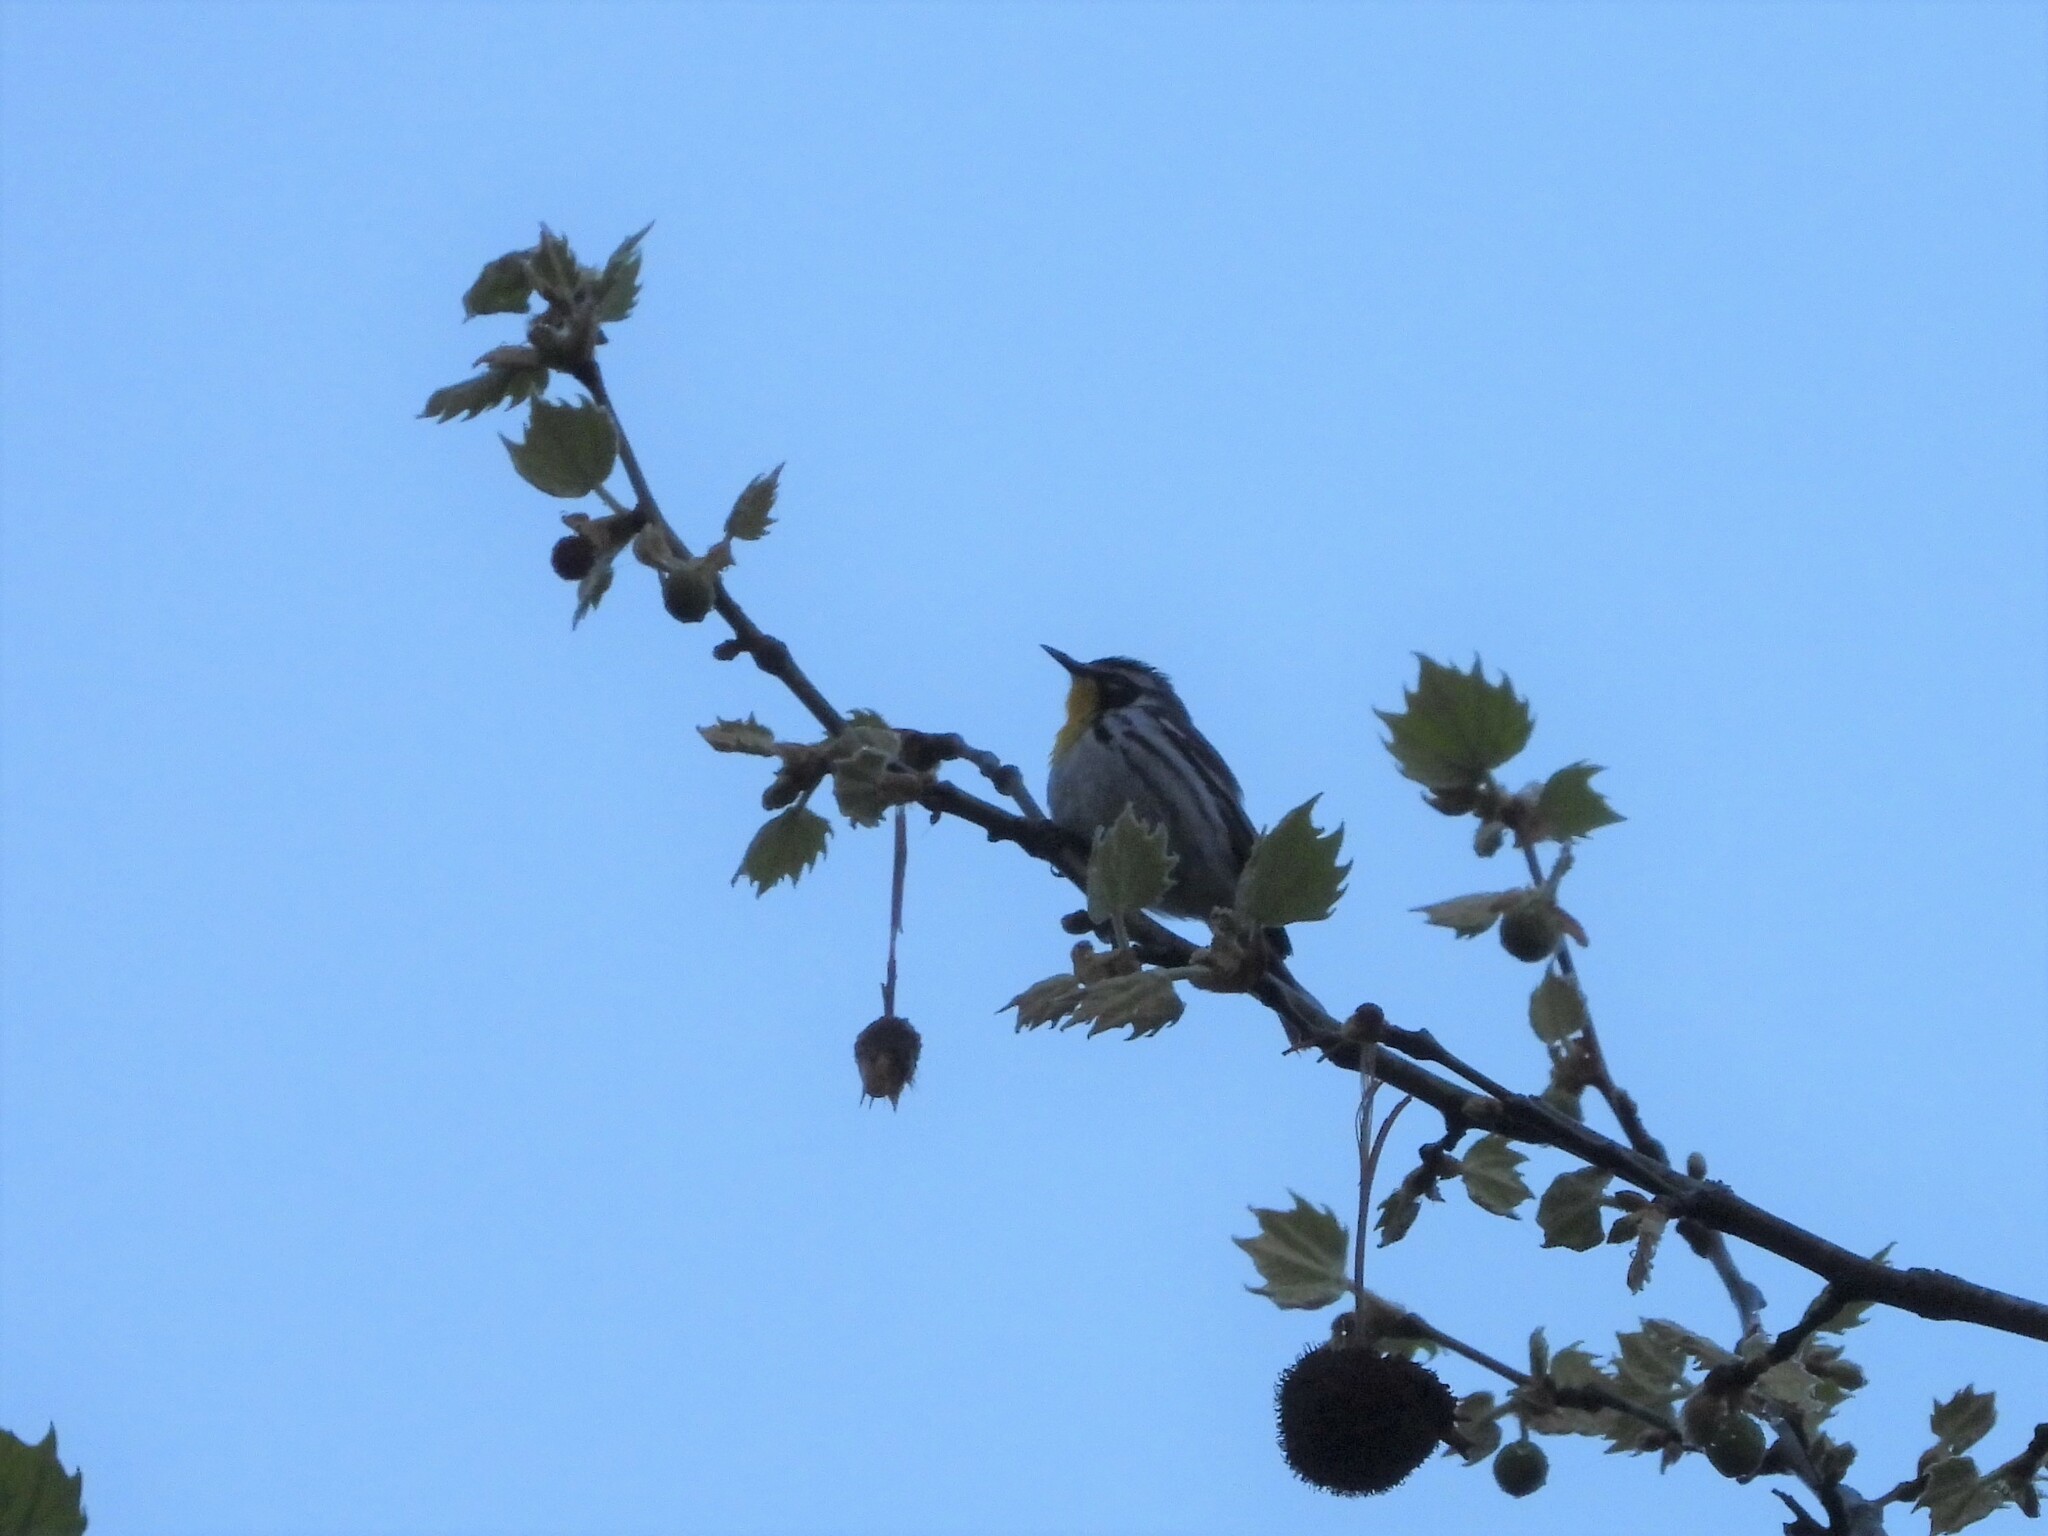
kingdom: Animalia
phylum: Chordata
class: Aves
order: Passeriformes
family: Parulidae
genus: Setophaga
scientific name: Setophaga dominica
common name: Yellow-throated warbler
